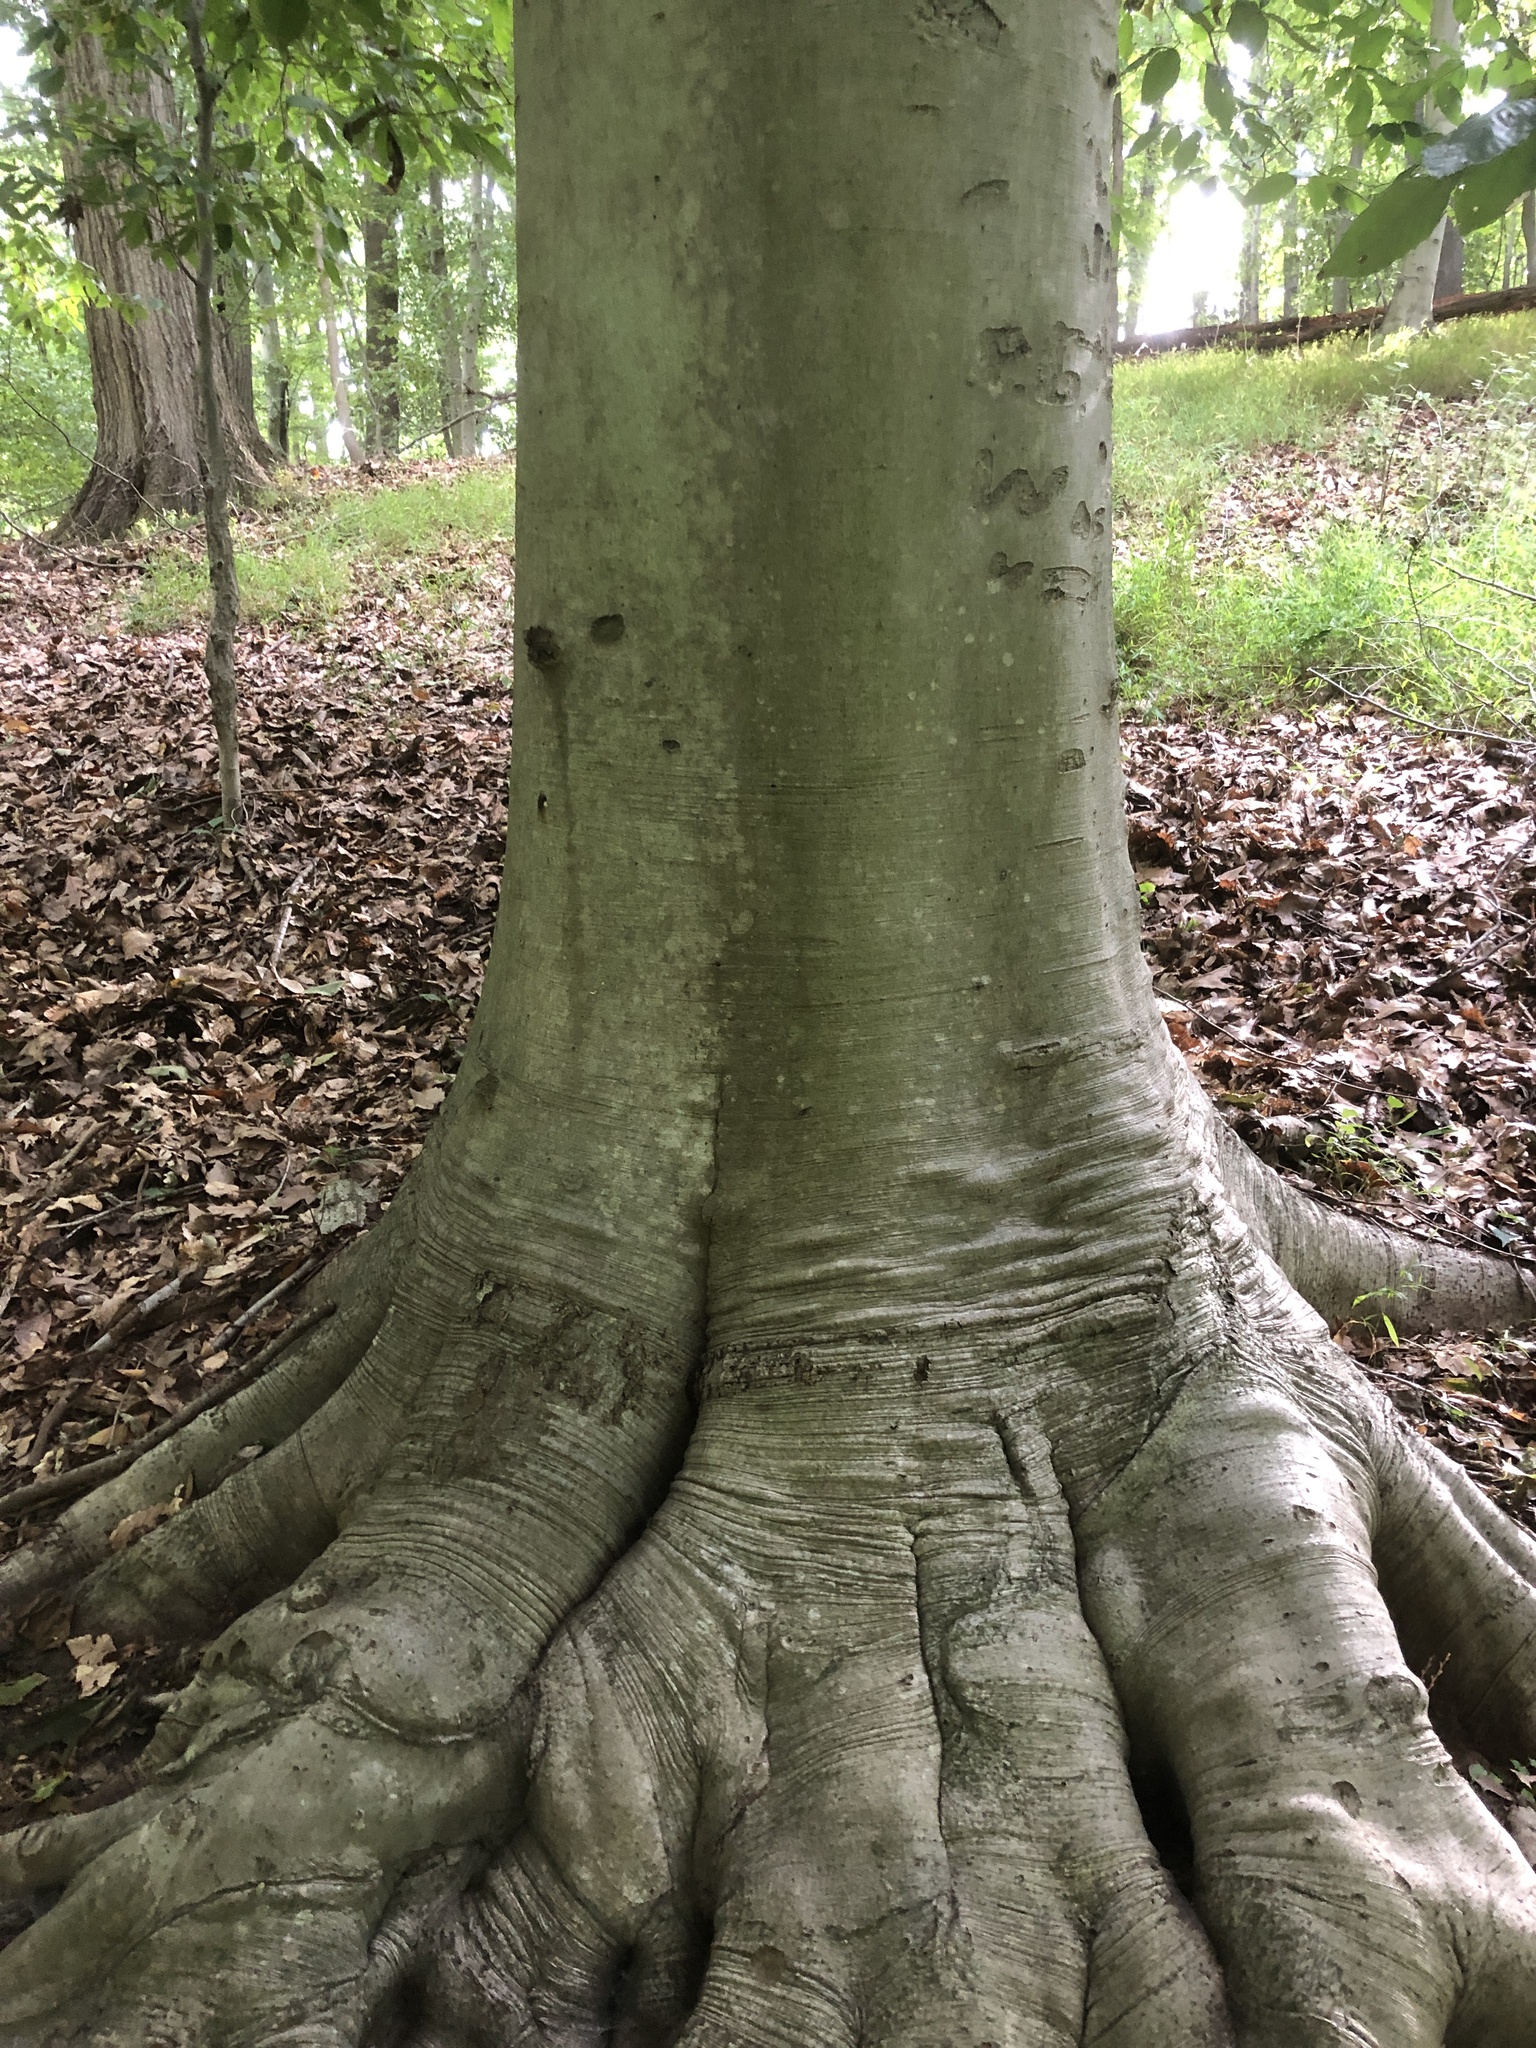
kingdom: Plantae
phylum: Tracheophyta
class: Magnoliopsida
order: Fagales
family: Fagaceae
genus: Fagus
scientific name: Fagus grandifolia
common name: American beech
